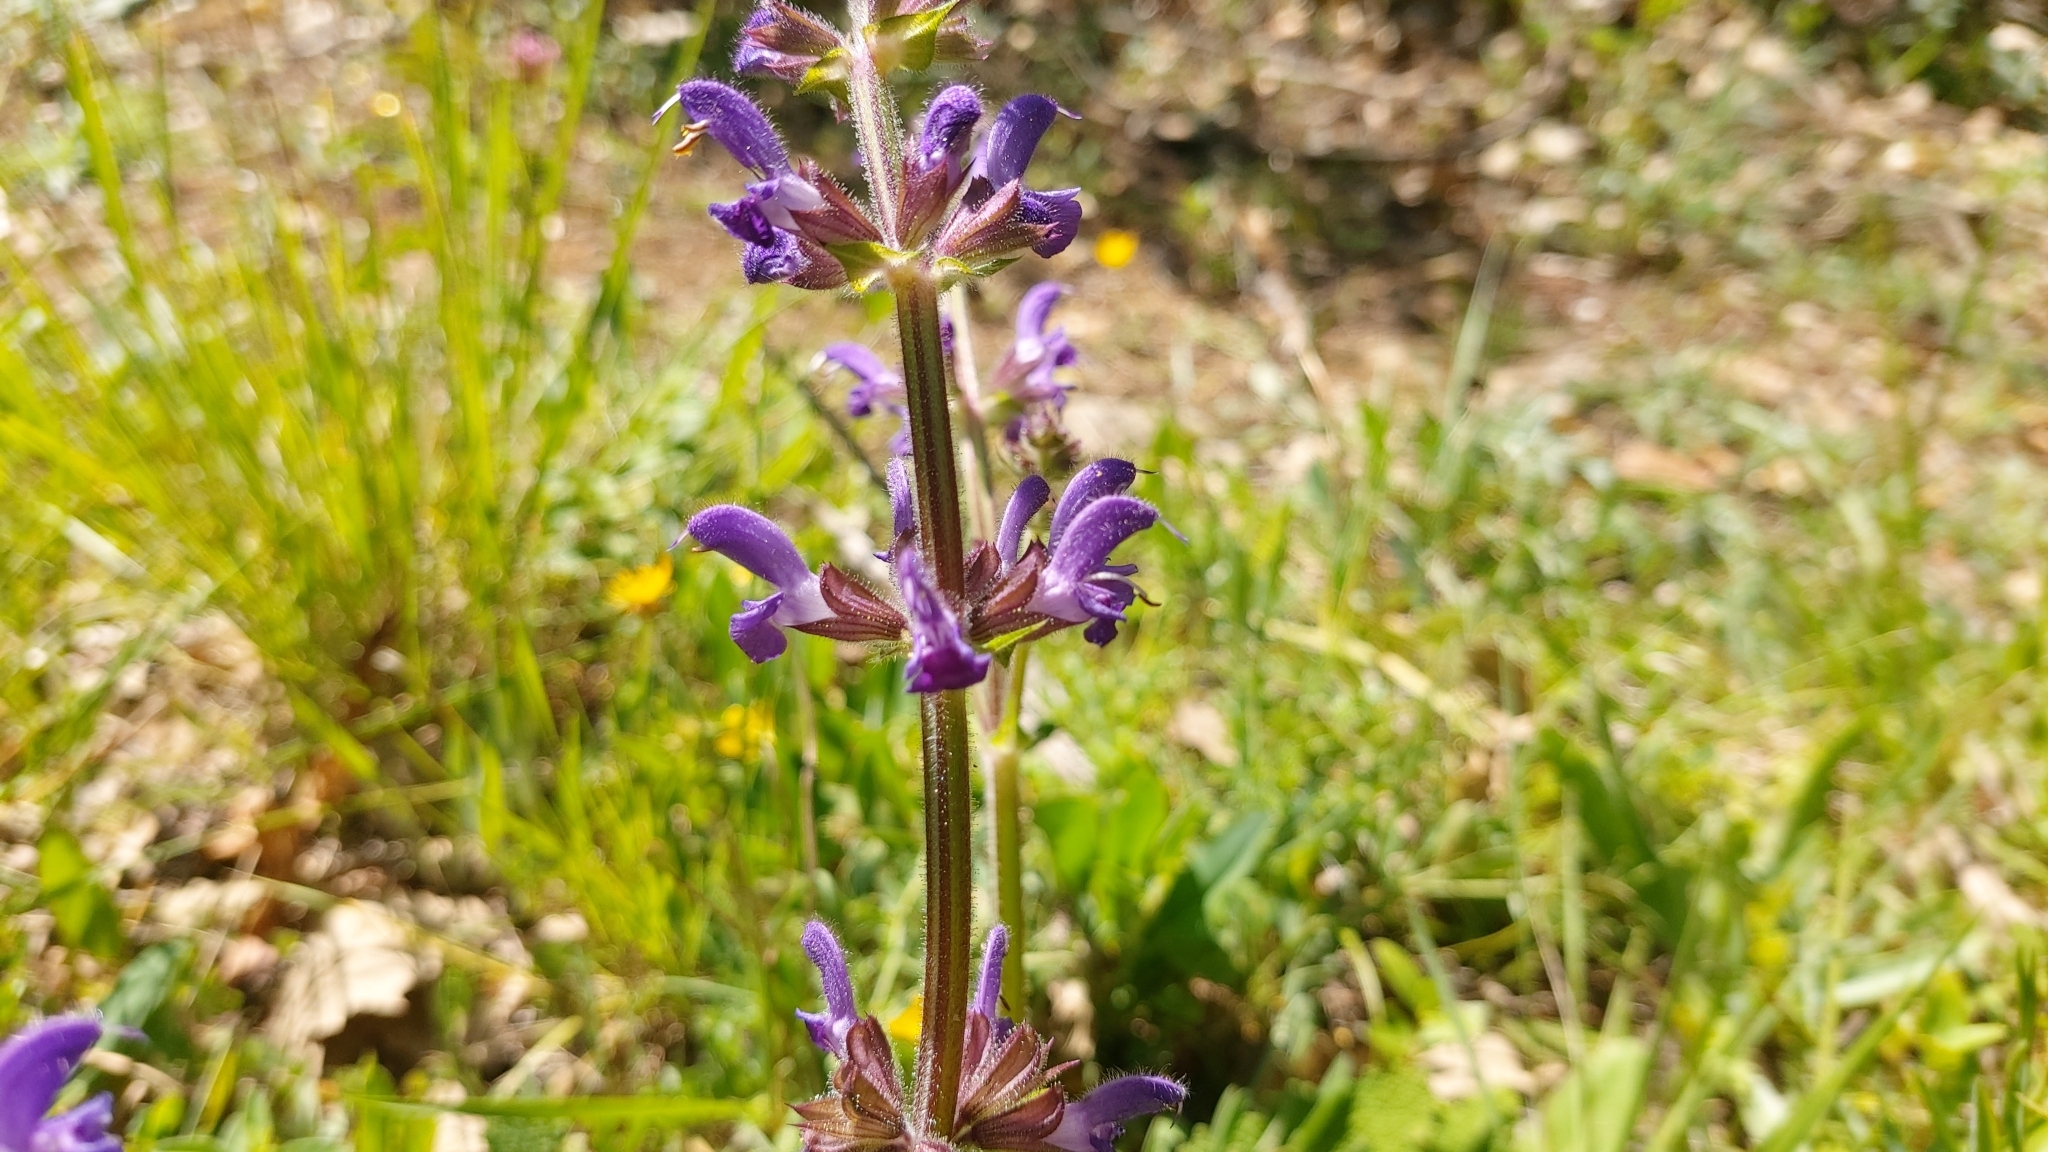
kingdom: Plantae
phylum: Tracheophyta
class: Magnoliopsida
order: Lamiales
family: Lamiaceae
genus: Salvia
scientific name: Salvia sclareoides
